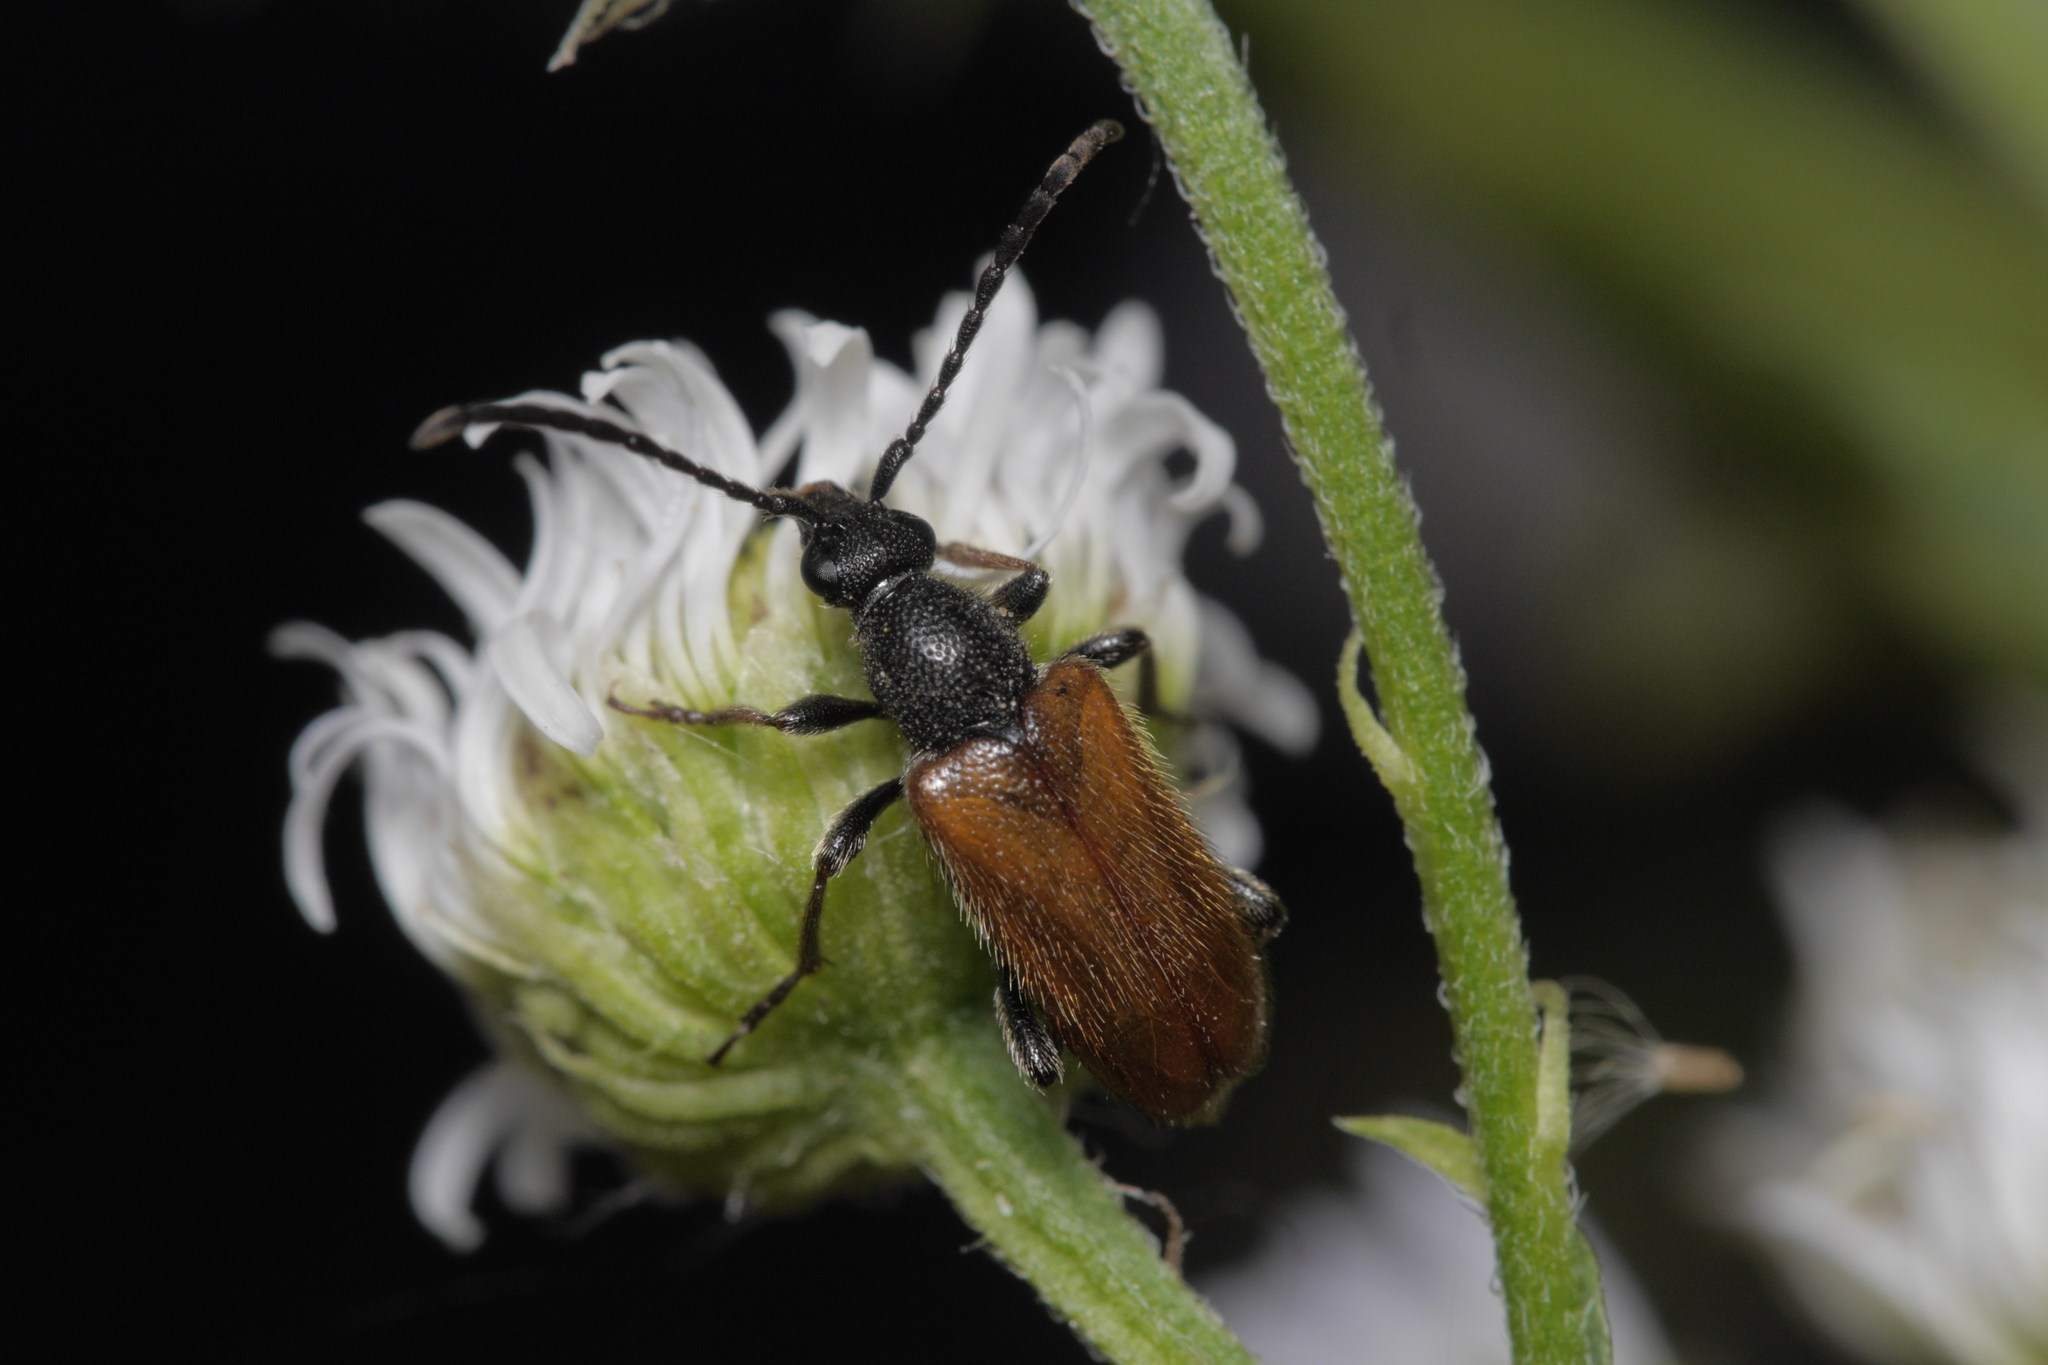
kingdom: Animalia
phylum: Arthropoda
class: Insecta
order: Coleoptera
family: Cerambycidae
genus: Pseudovadonia
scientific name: Pseudovadonia livida
